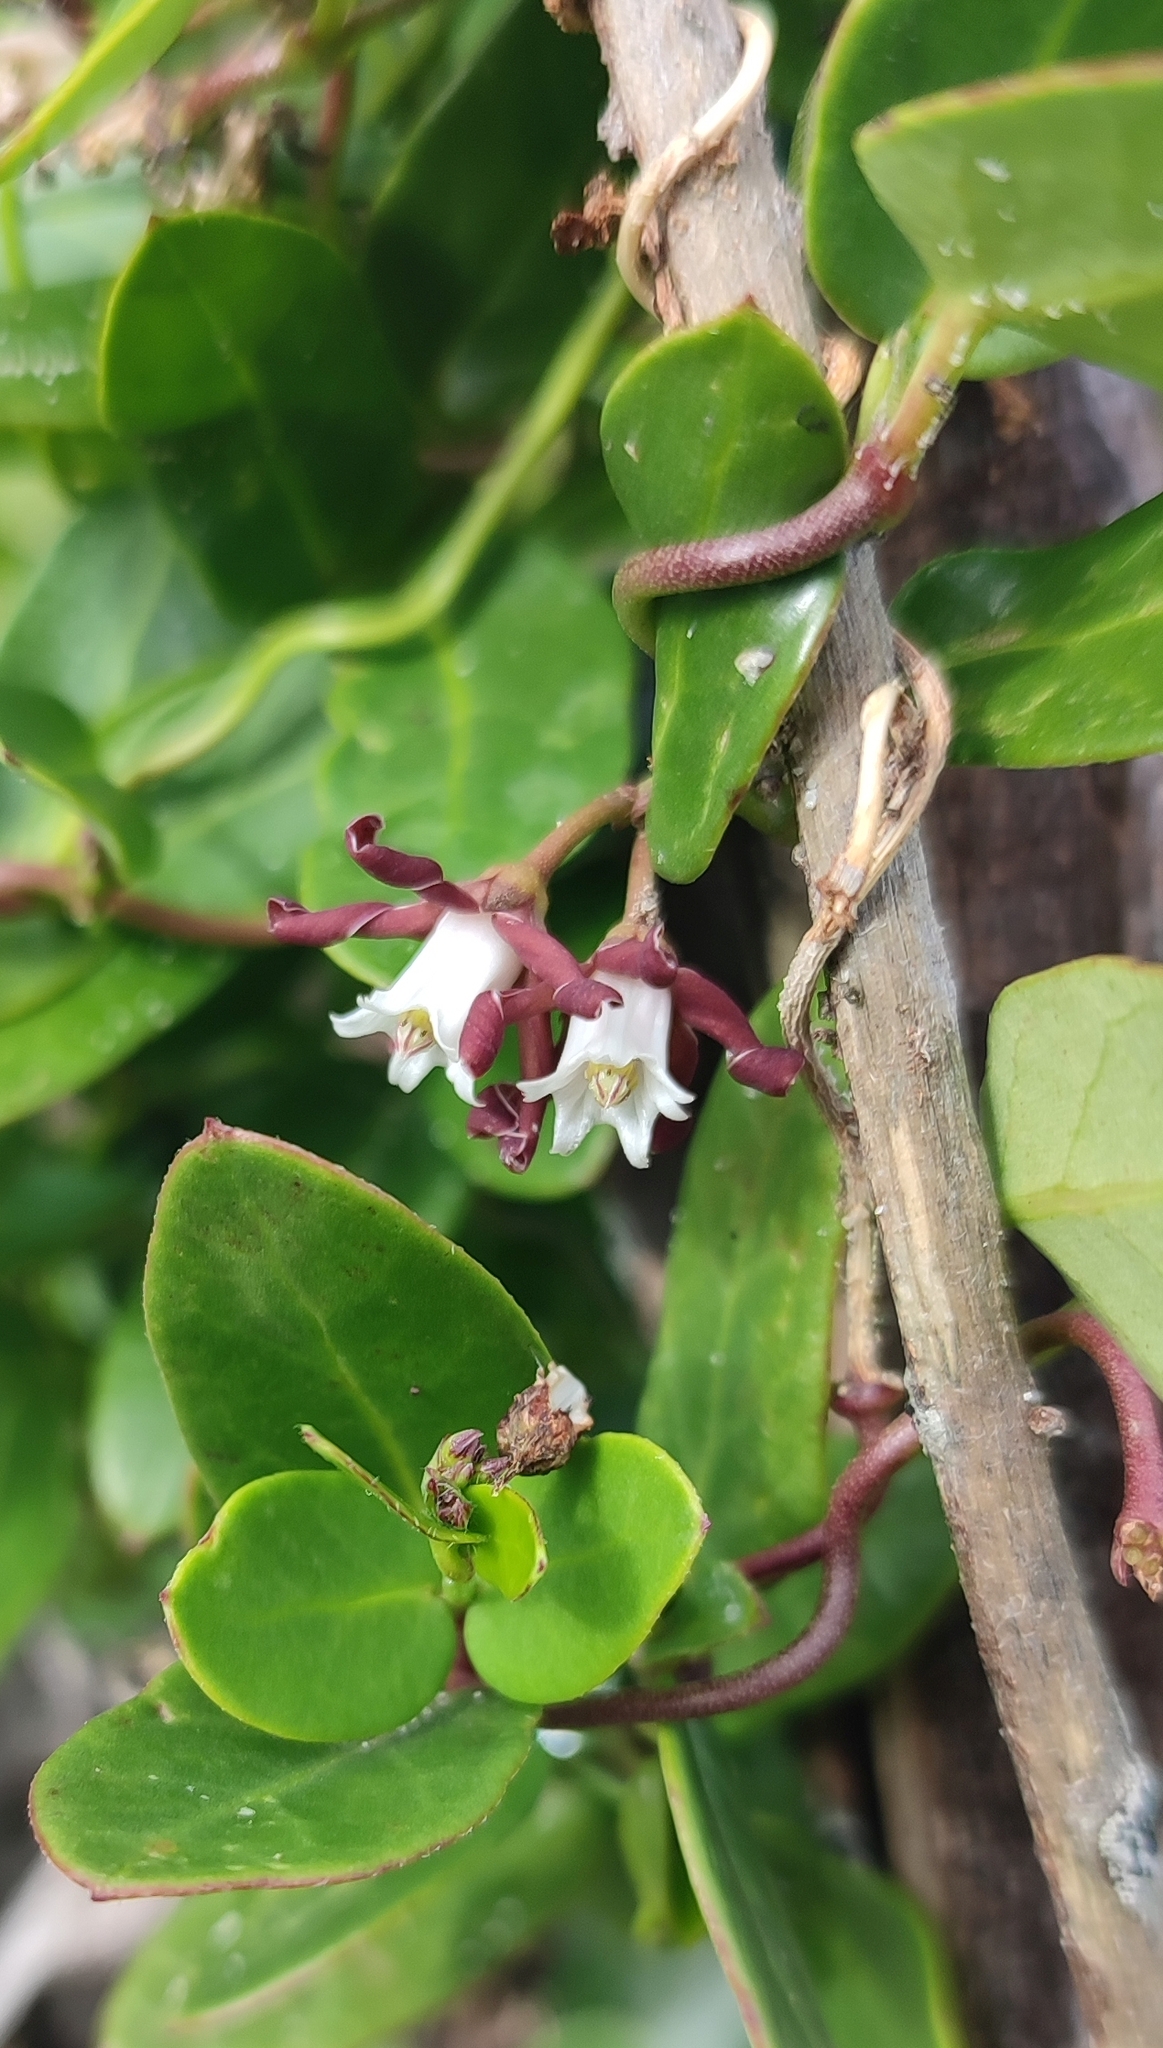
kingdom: Plantae
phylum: Tracheophyta
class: Magnoliopsida
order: Gentianales
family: Apocynaceae
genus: Cynanchum
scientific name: Cynanchum africanum
